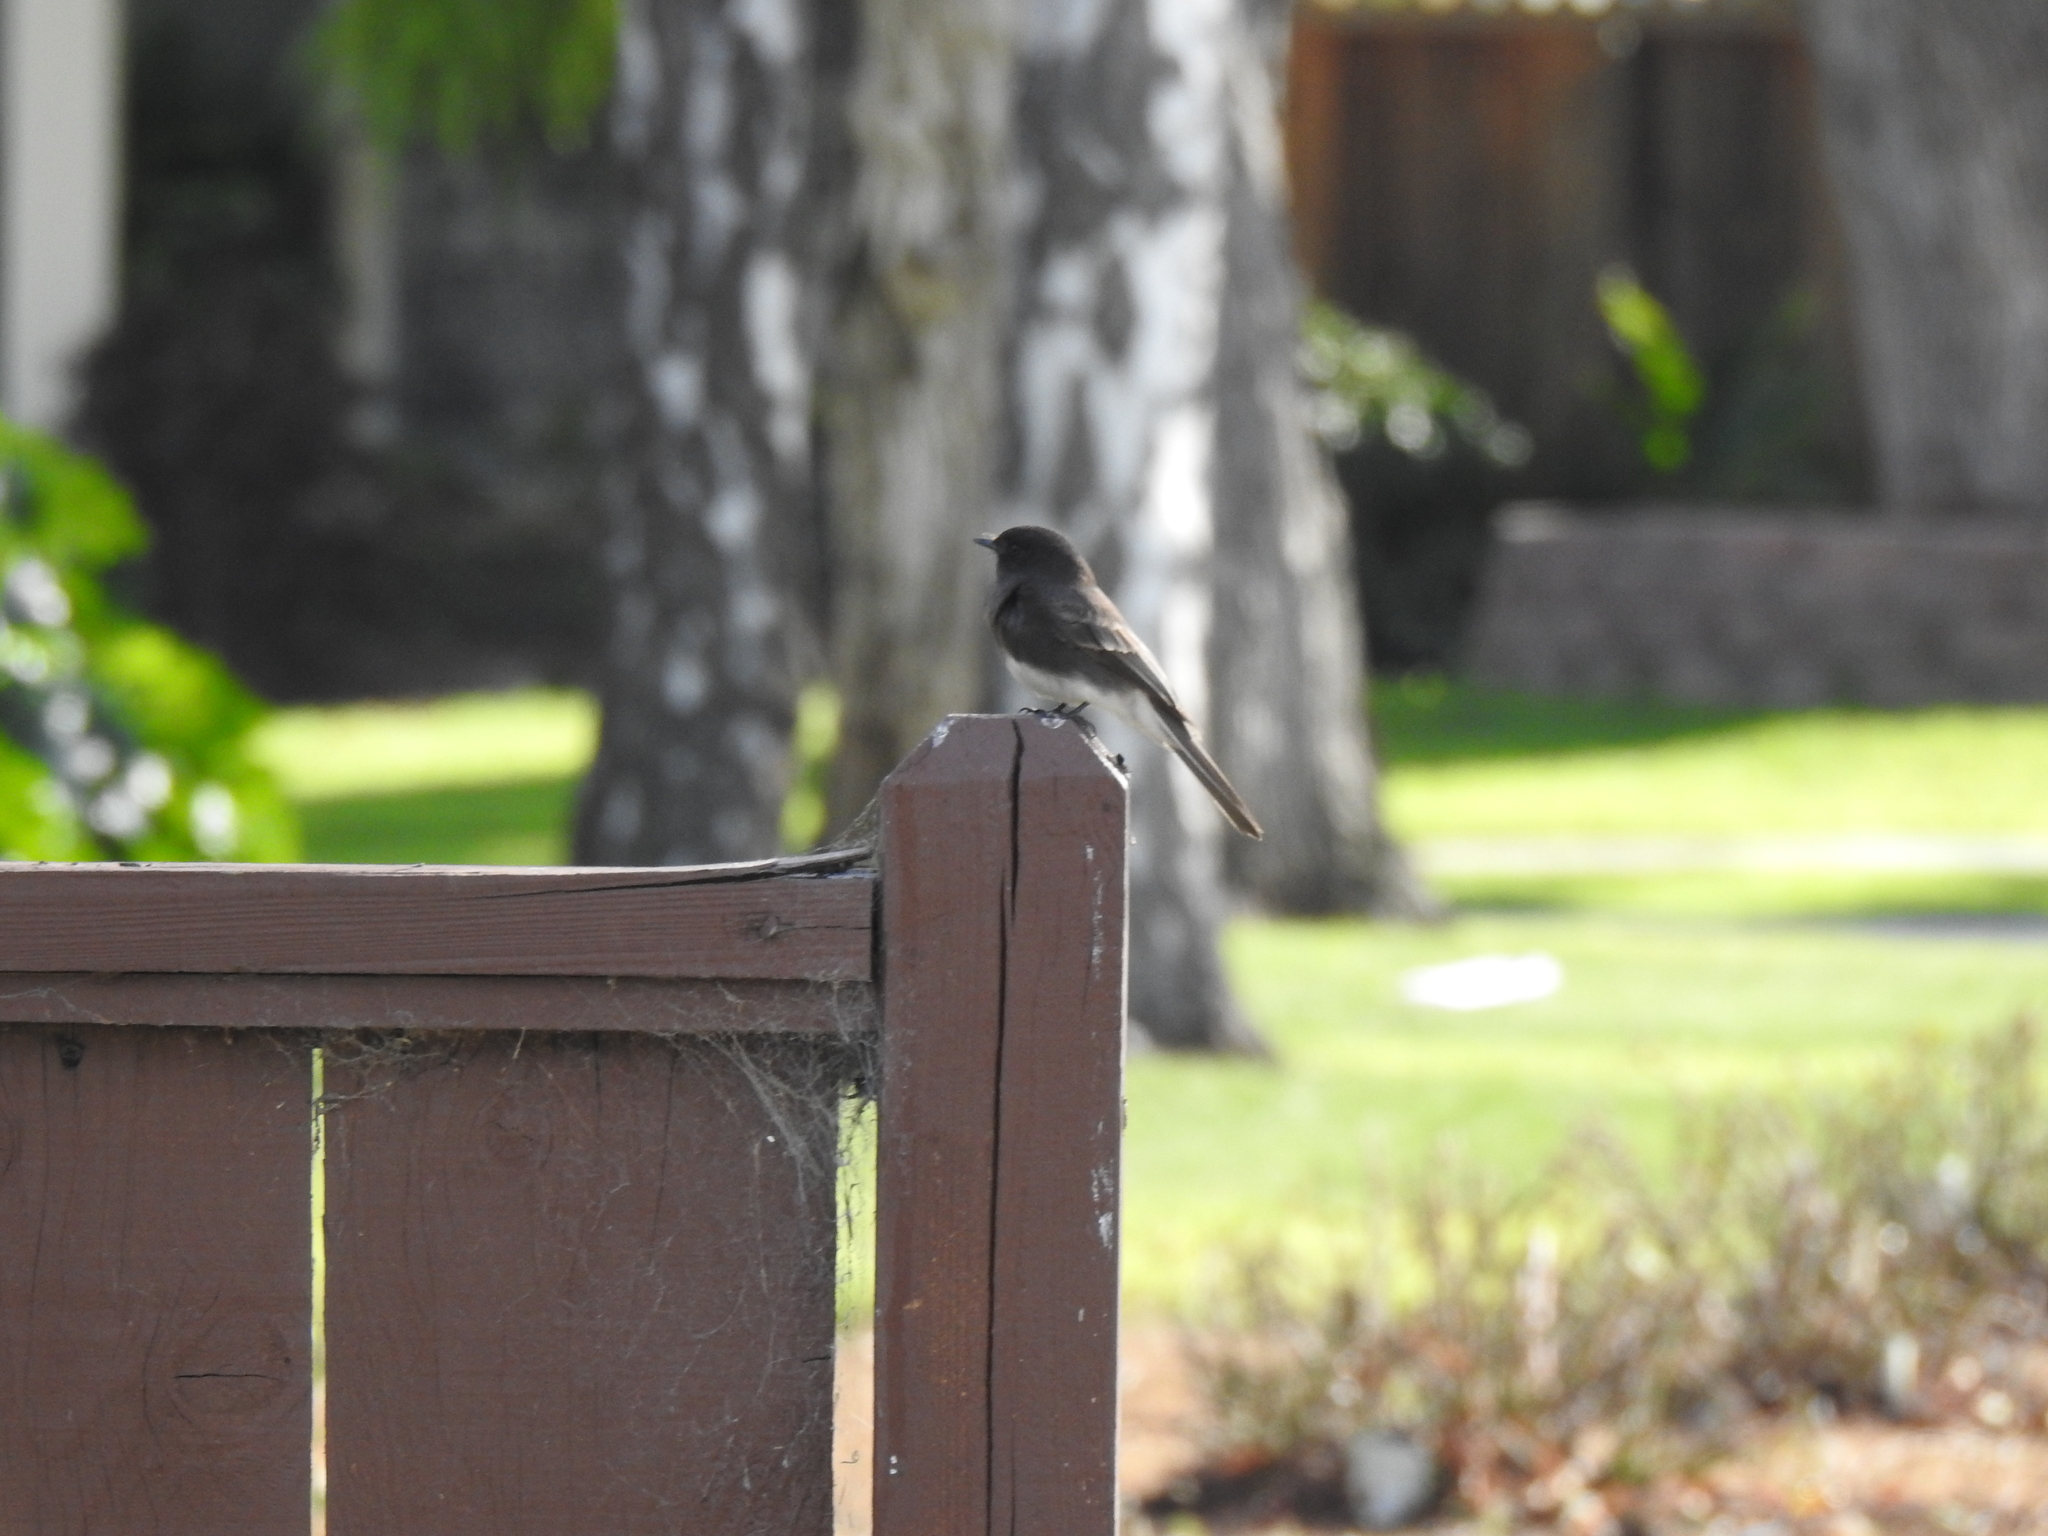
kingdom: Animalia
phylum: Chordata
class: Aves
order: Passeriformes
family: Tyrannidae
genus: Sayornis
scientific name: Sayornis nigricans
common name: Black phoebe
